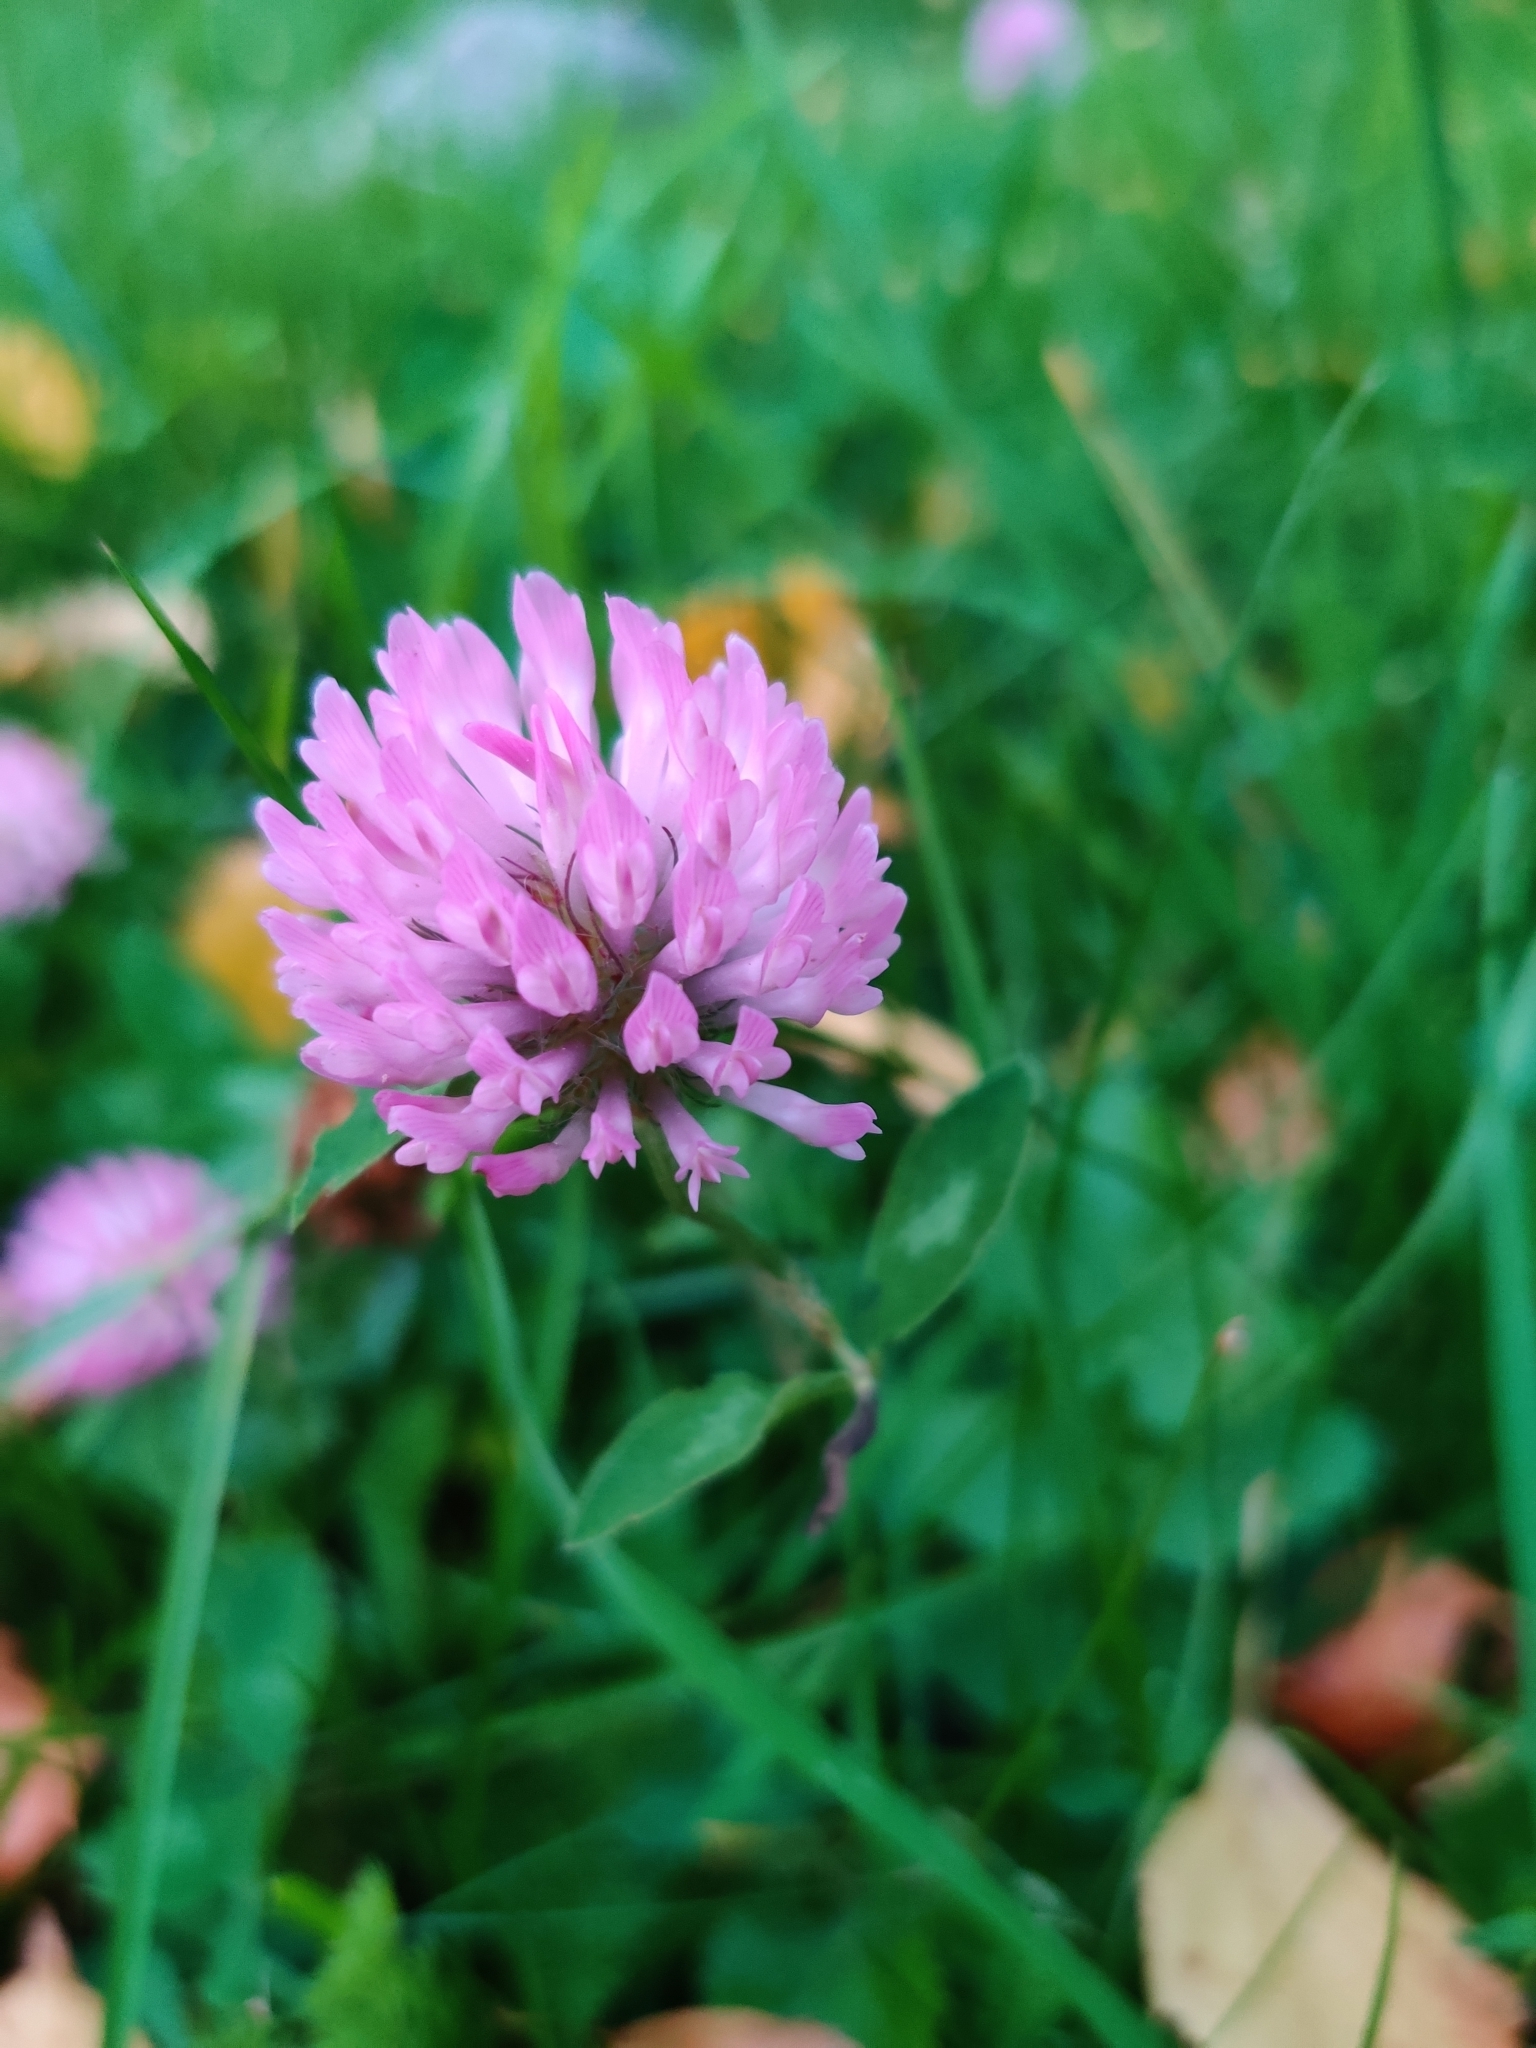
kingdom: Plantae
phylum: Tracheophyta
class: Magnoliopsida
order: Fabales
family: Fabaceae
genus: Trifolium
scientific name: Trifolium pratense
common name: Red clover
